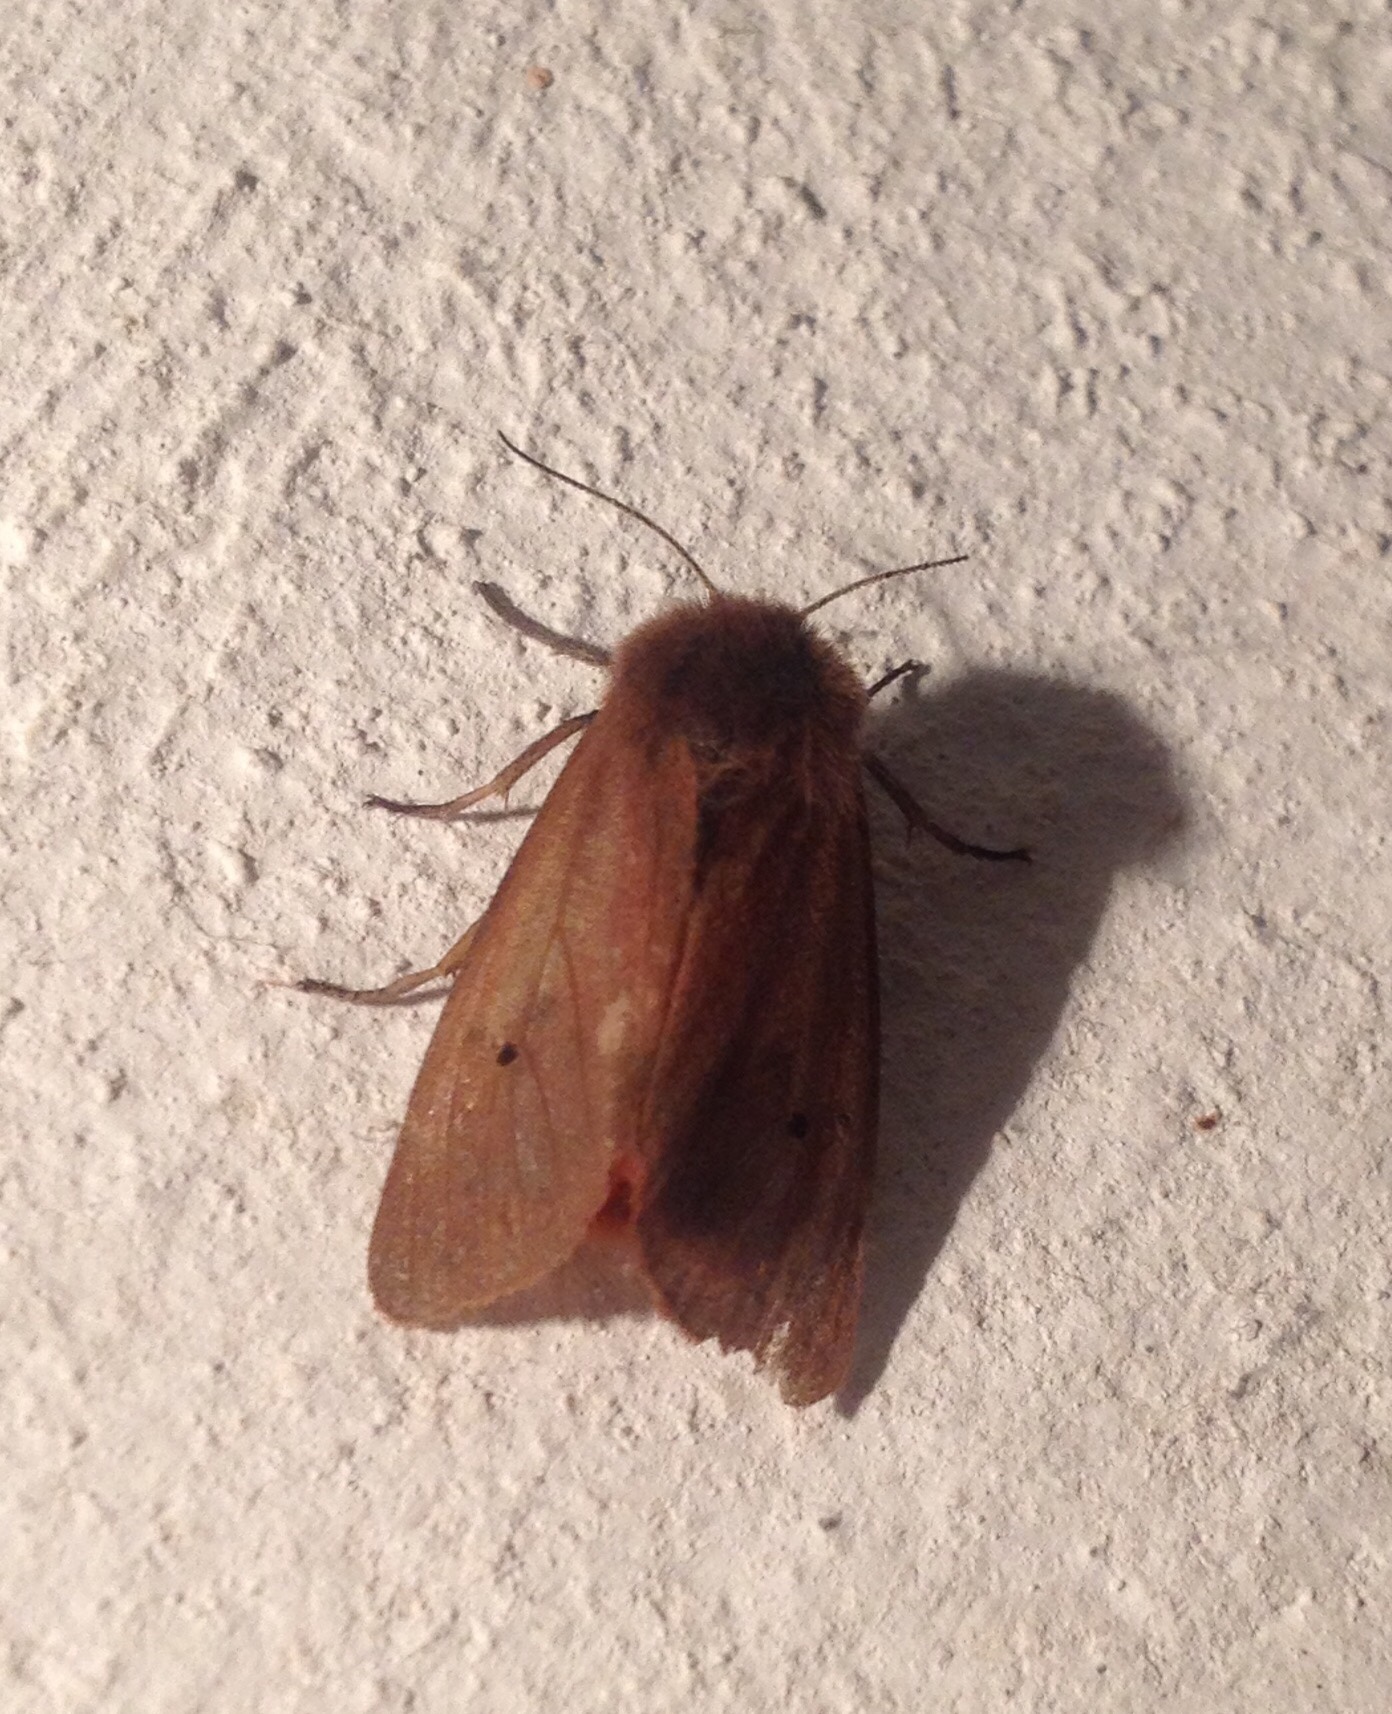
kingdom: Animalia
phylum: Arthropoda
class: Insecta
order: Lepidoptera
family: Erebidae
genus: Phragmatobia
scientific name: Phragmatobia fuliginosa
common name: Ruby tiger
